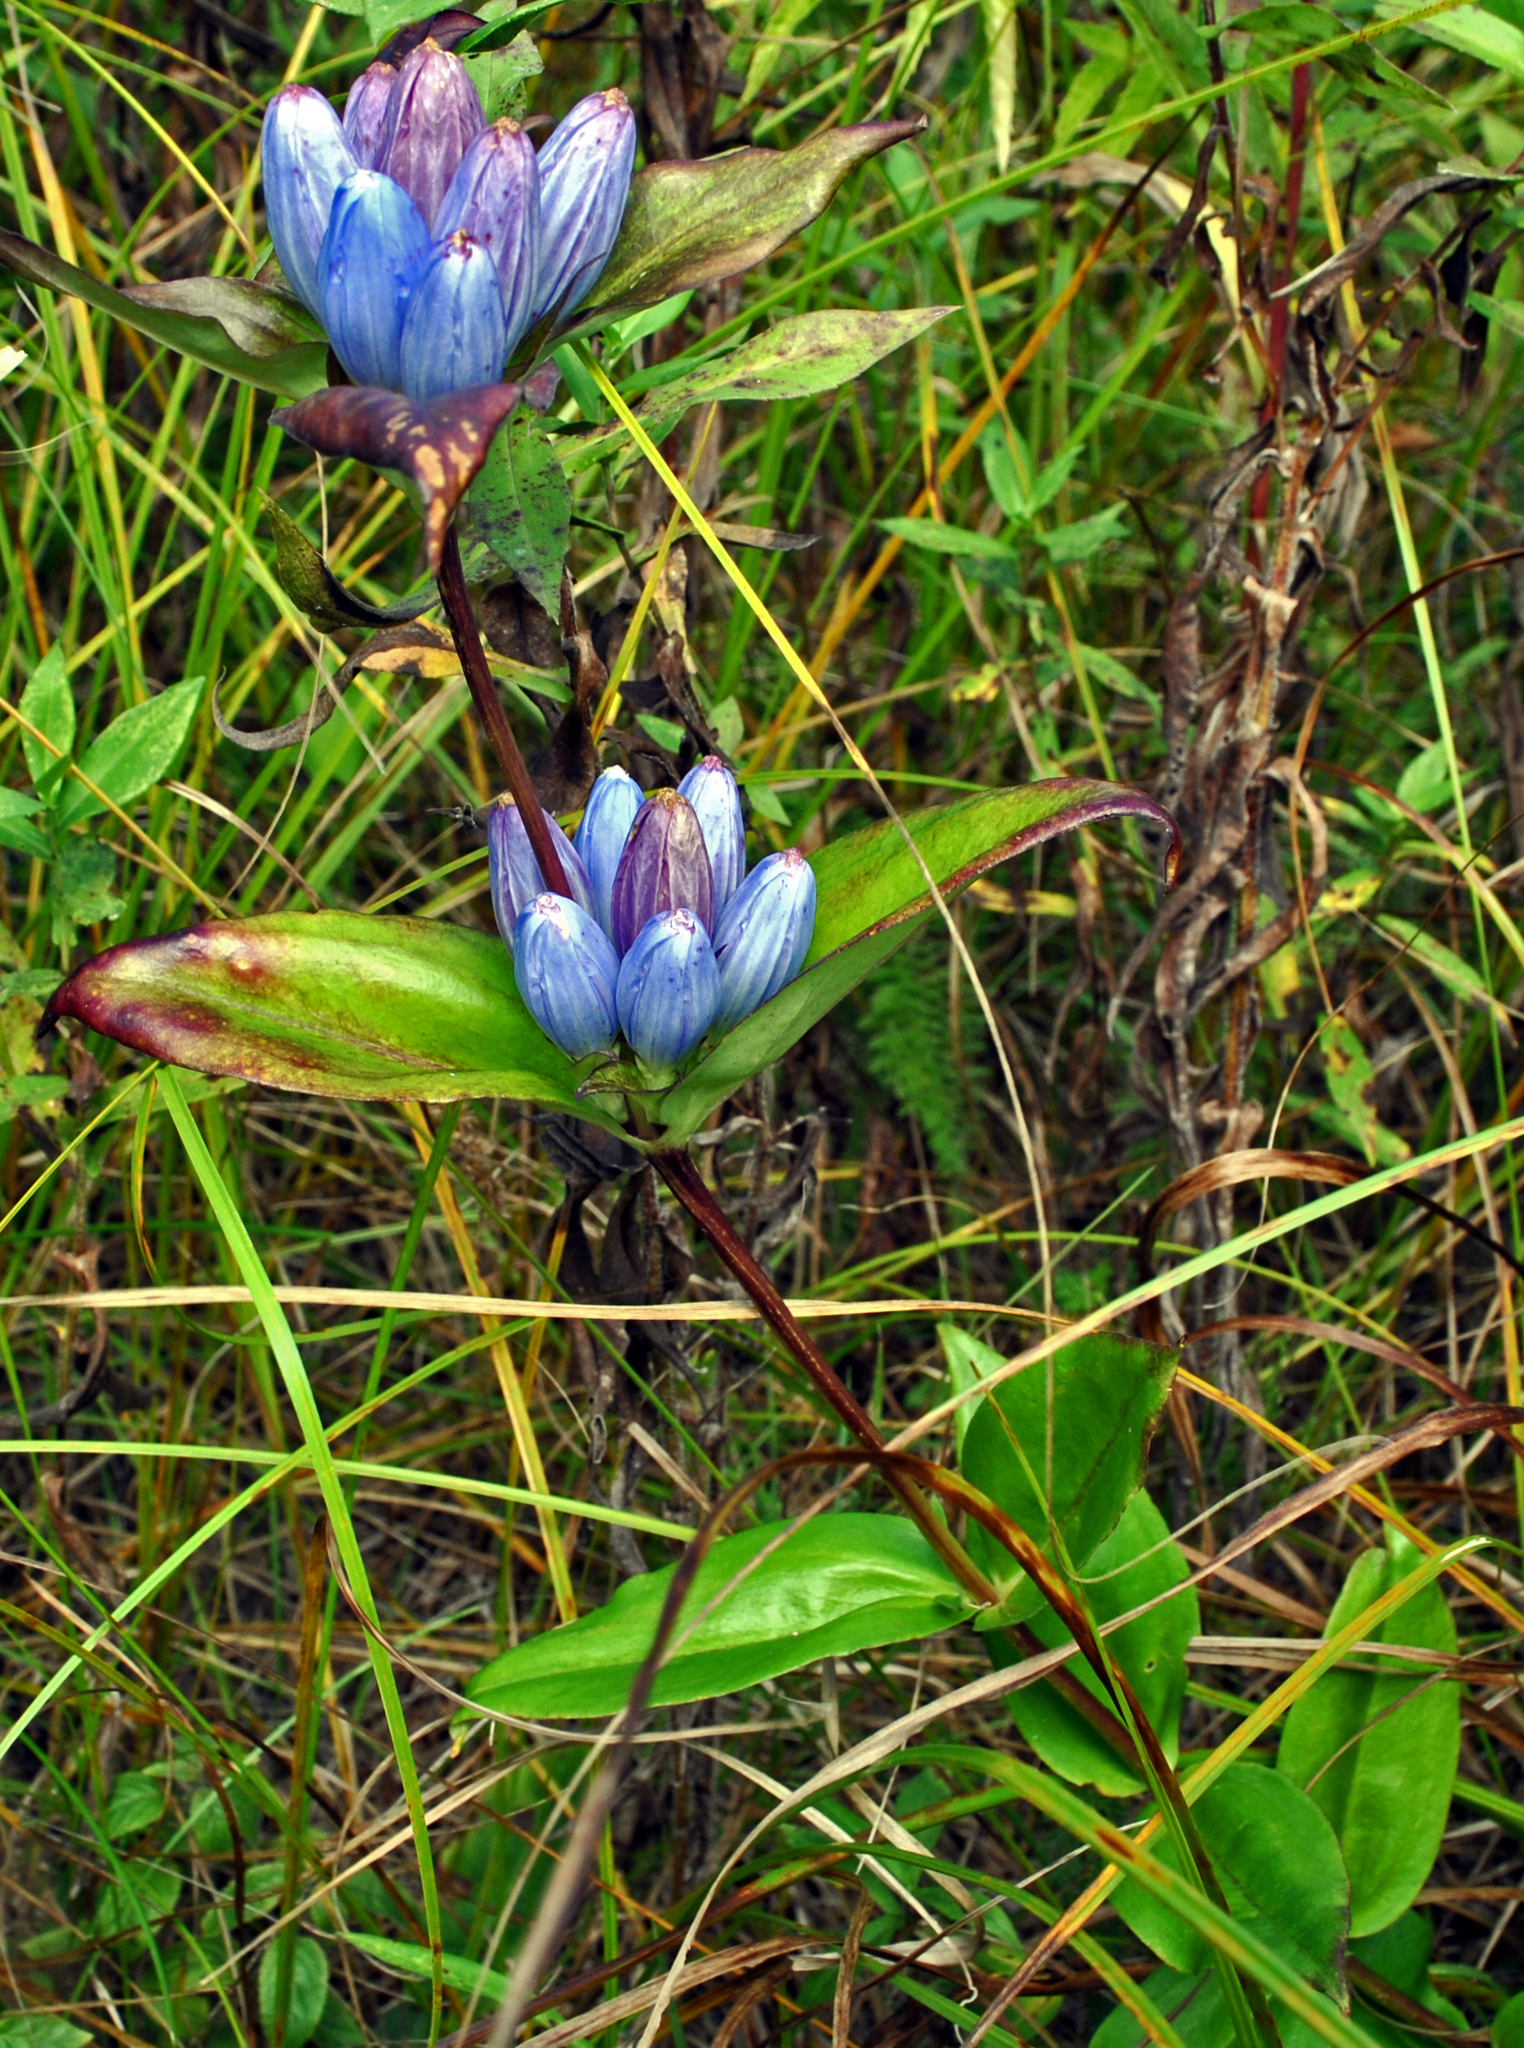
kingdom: Plantae
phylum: Tracheophyta
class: Magnoliopsida
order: Gentianales
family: Gentianaceae
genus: Gentiana
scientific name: Gentiana andrewsii
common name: Bottle gentian
